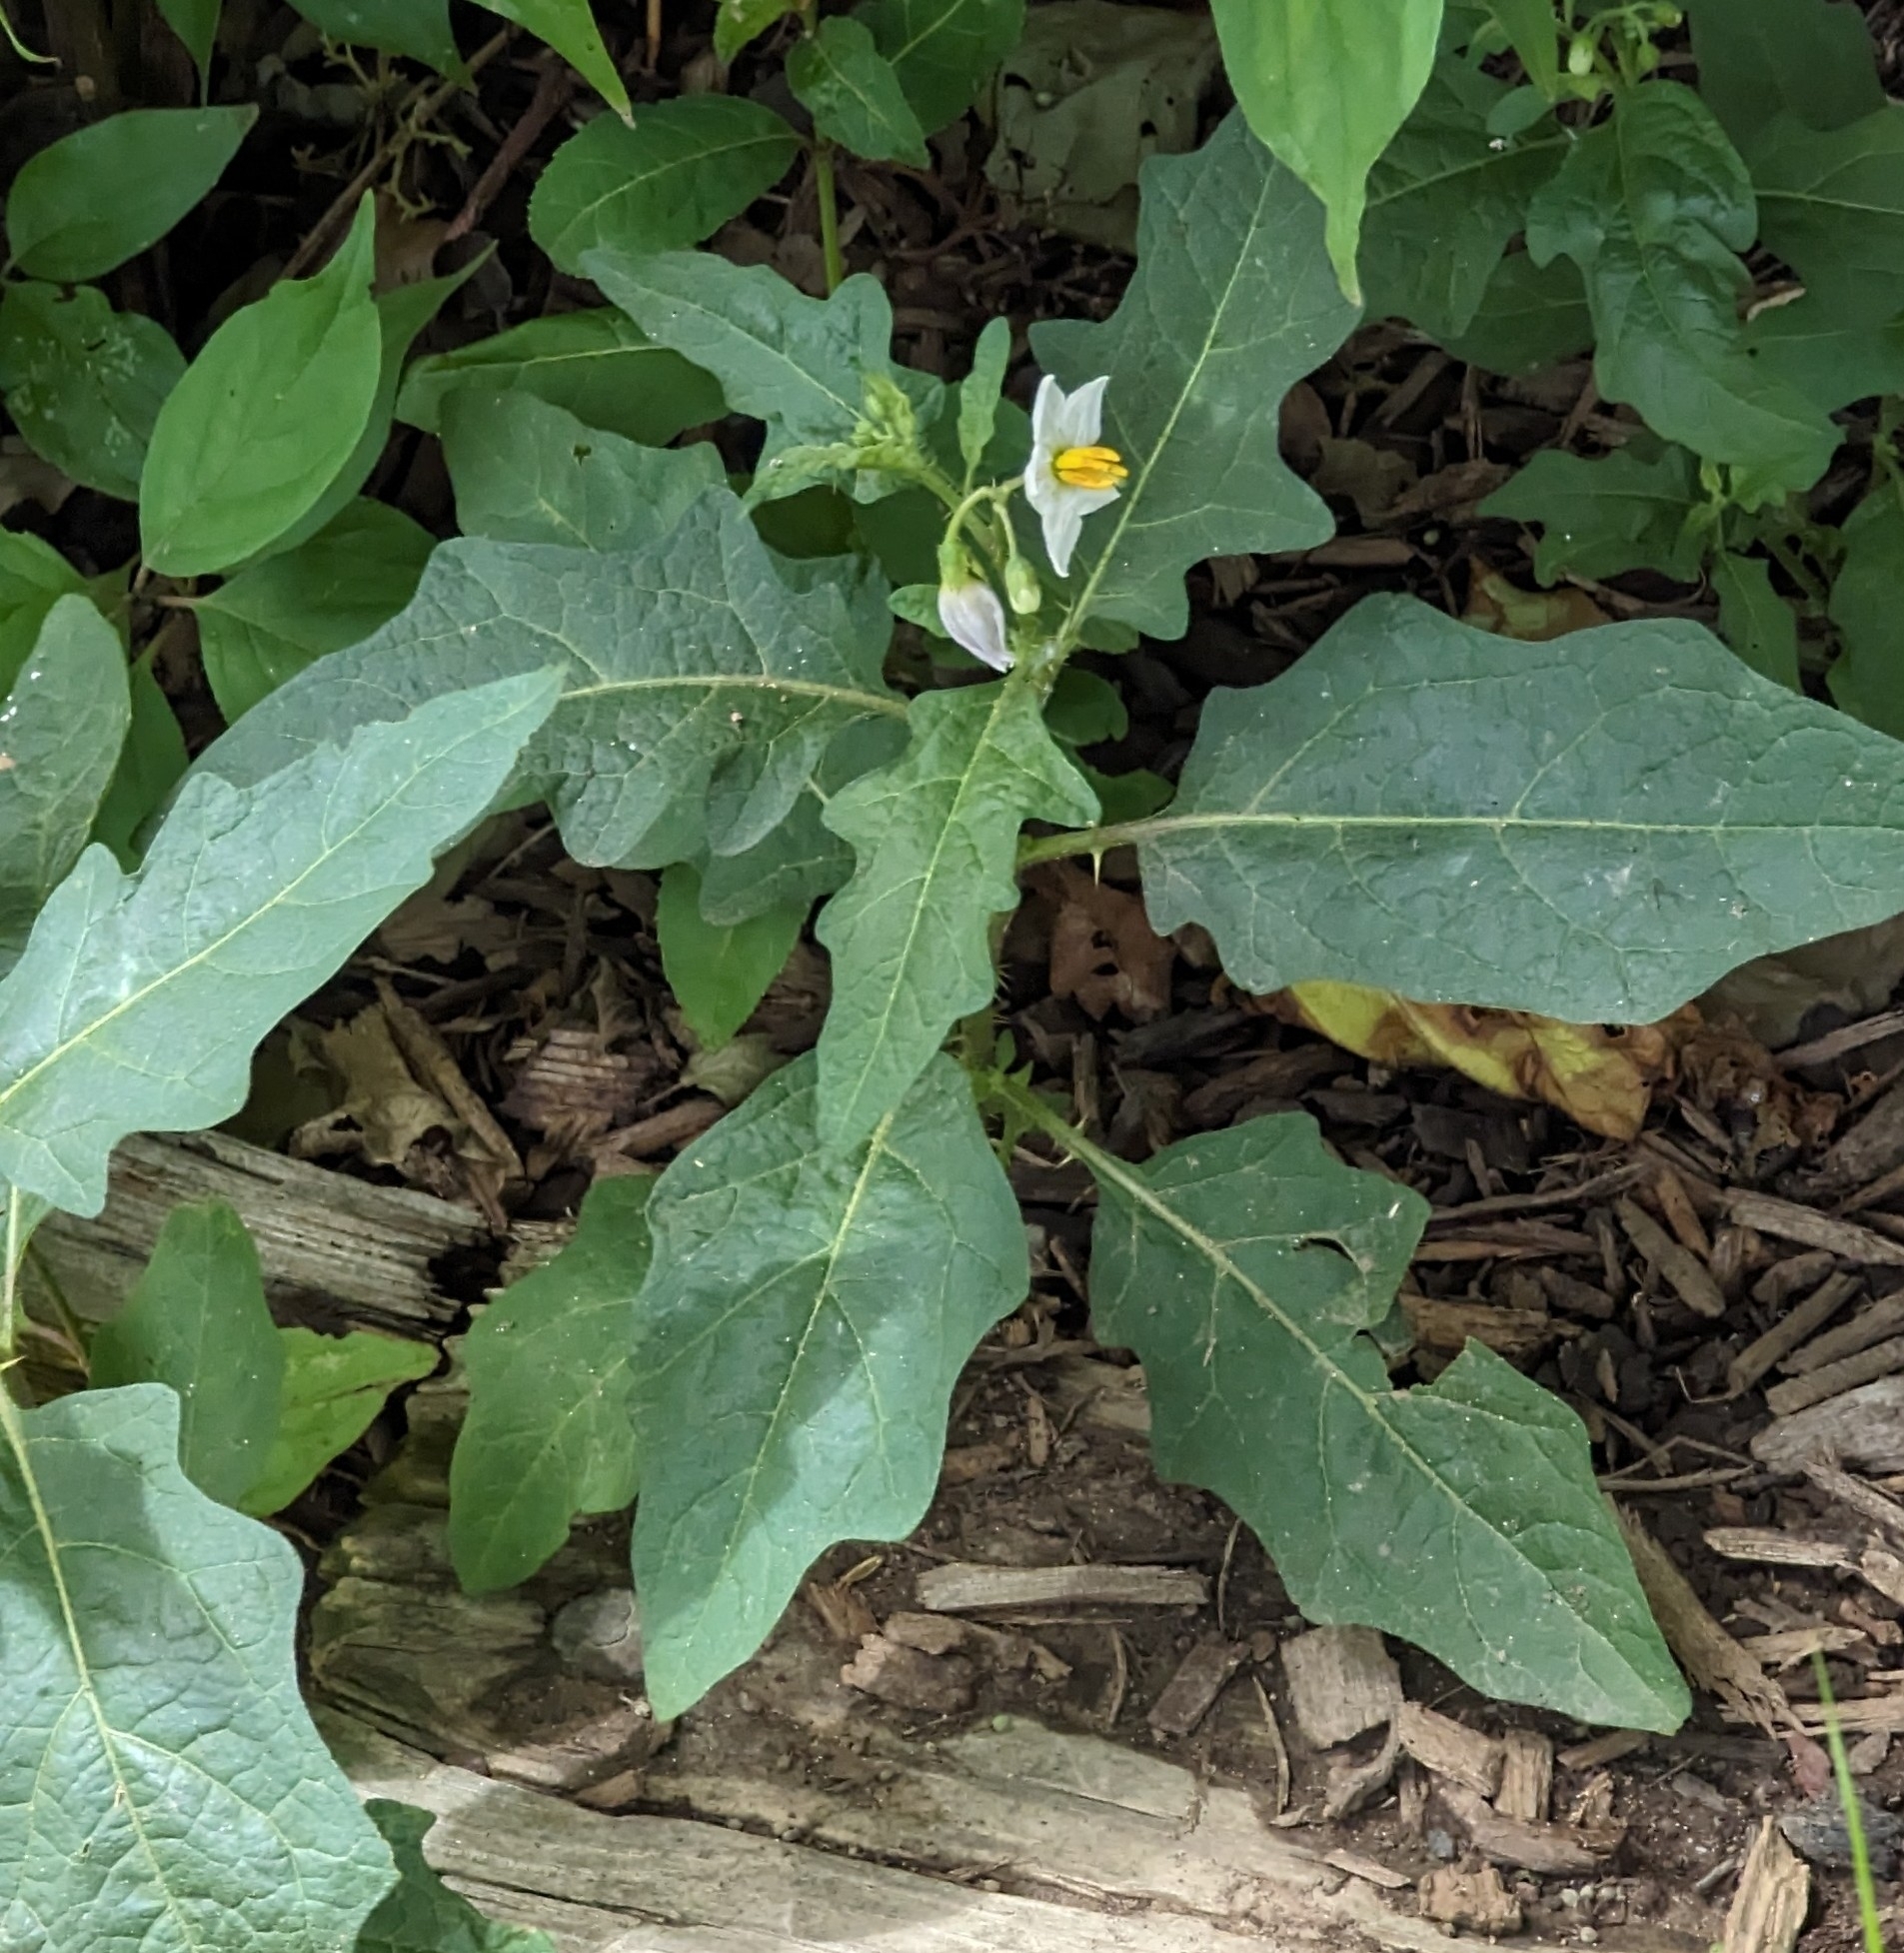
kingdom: Plantae
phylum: Tracheophyta
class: Magnoliopsida
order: Solanales
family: Solanaceae
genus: Solanum
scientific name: Solanum carolinense
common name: Horse-nettle
